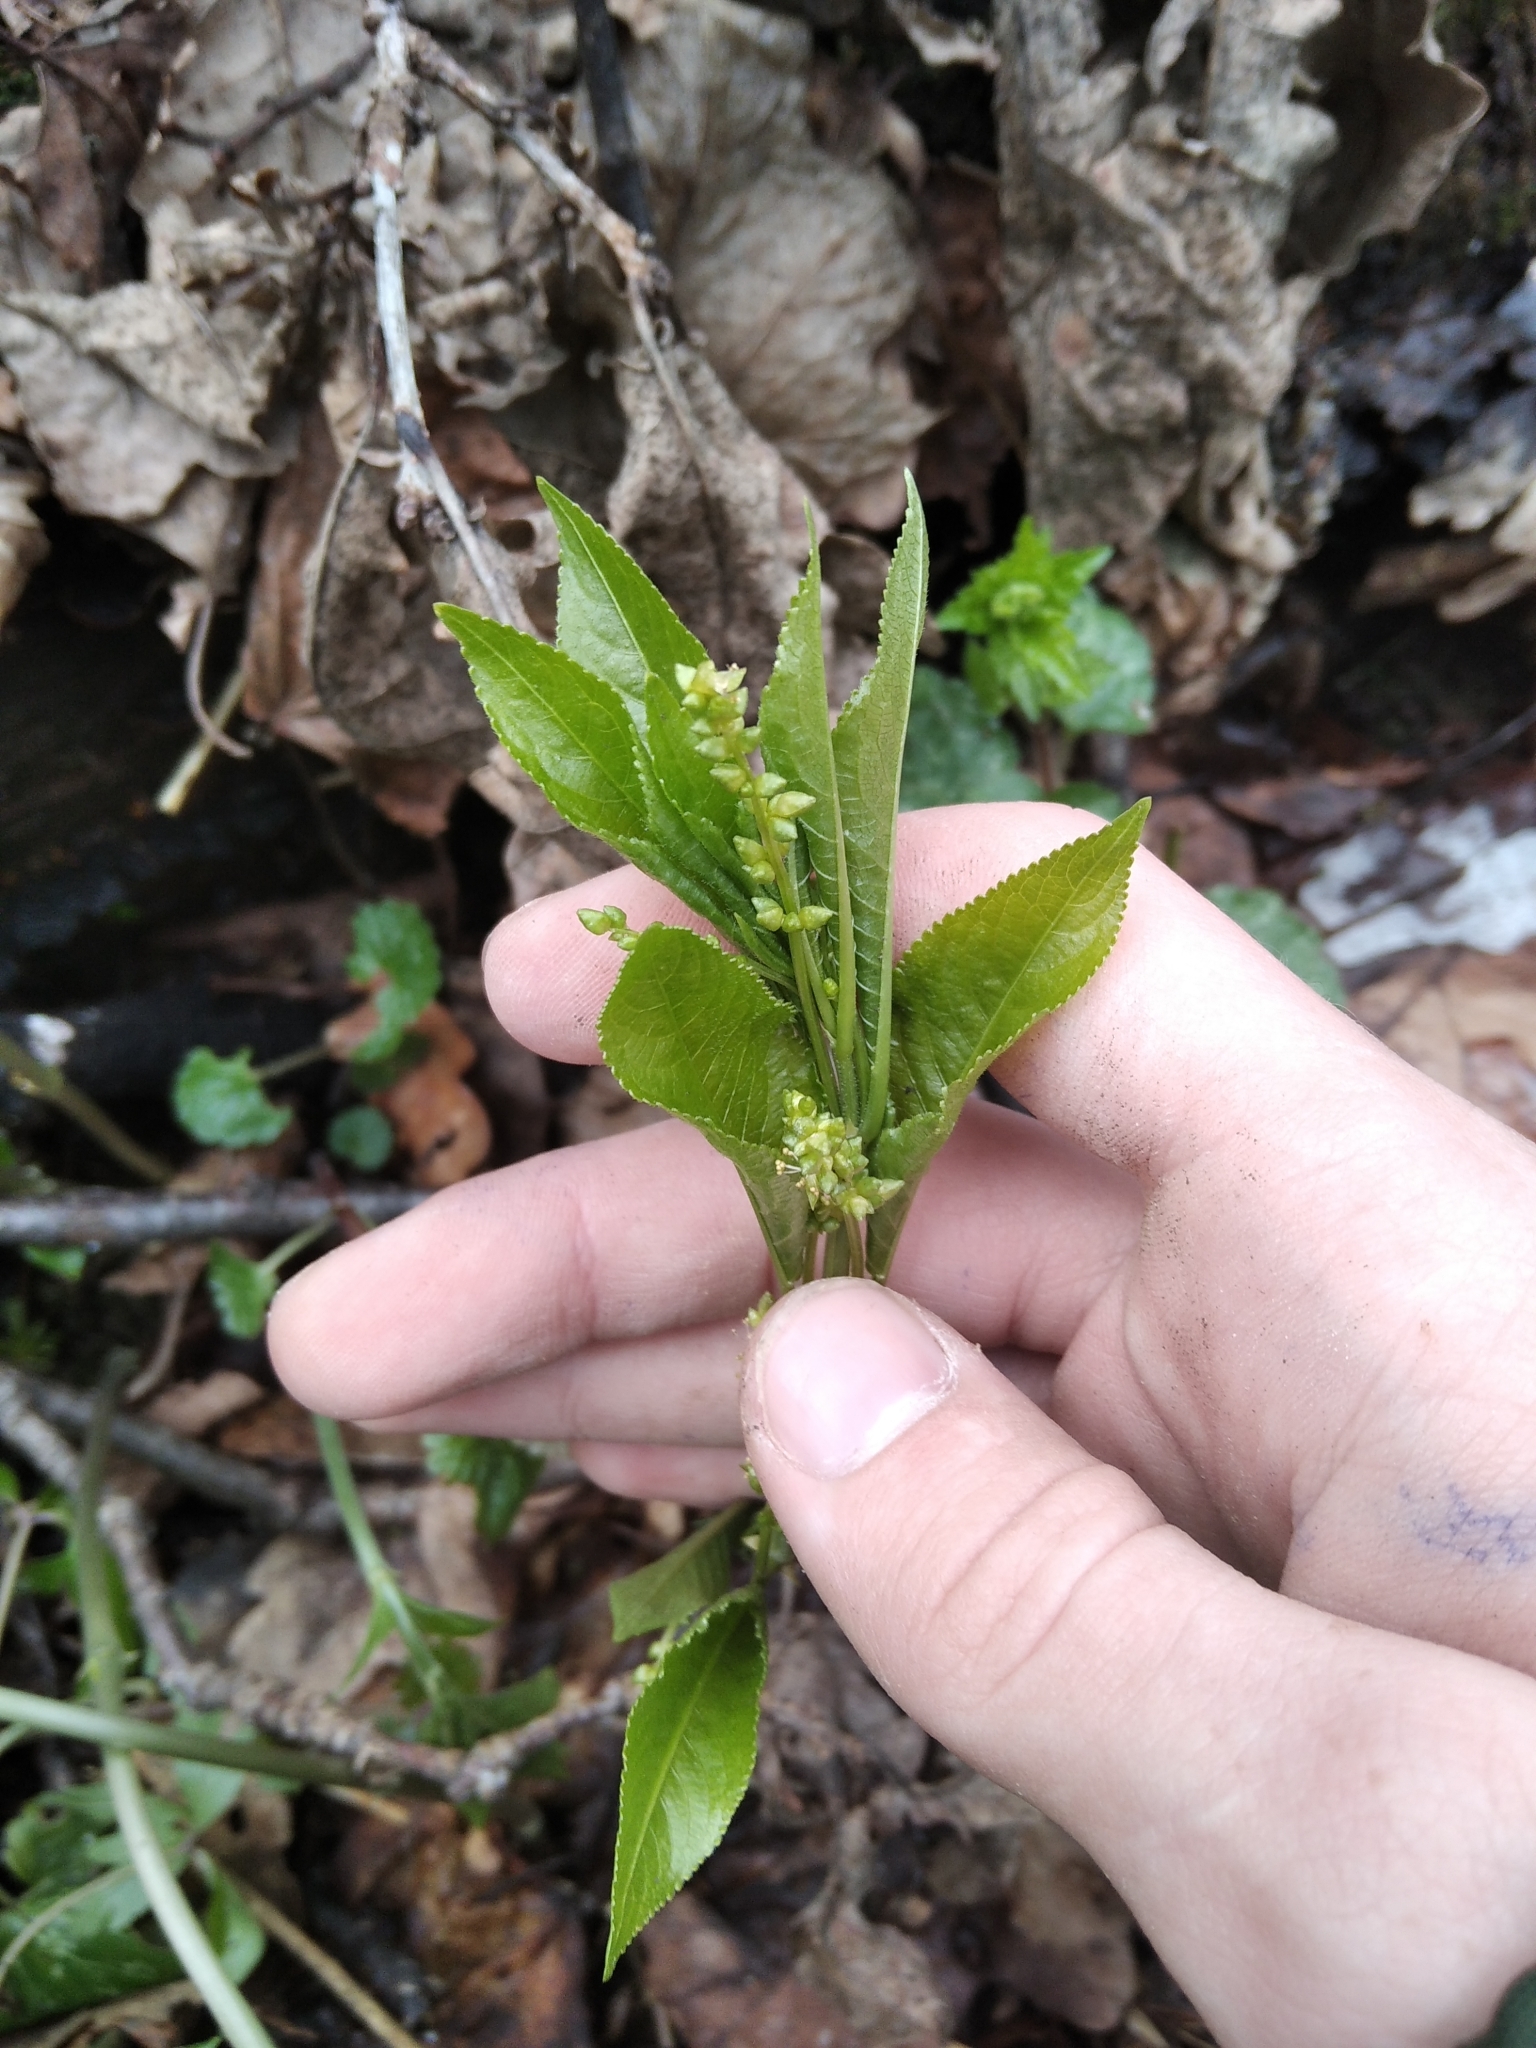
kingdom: Plantae
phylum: Tracheophyta
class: Magnoliopsida
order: Malpighiales
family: Euphorbiaceae
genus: Mercurialis
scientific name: Mercurialis perennis
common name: Dog mercury
